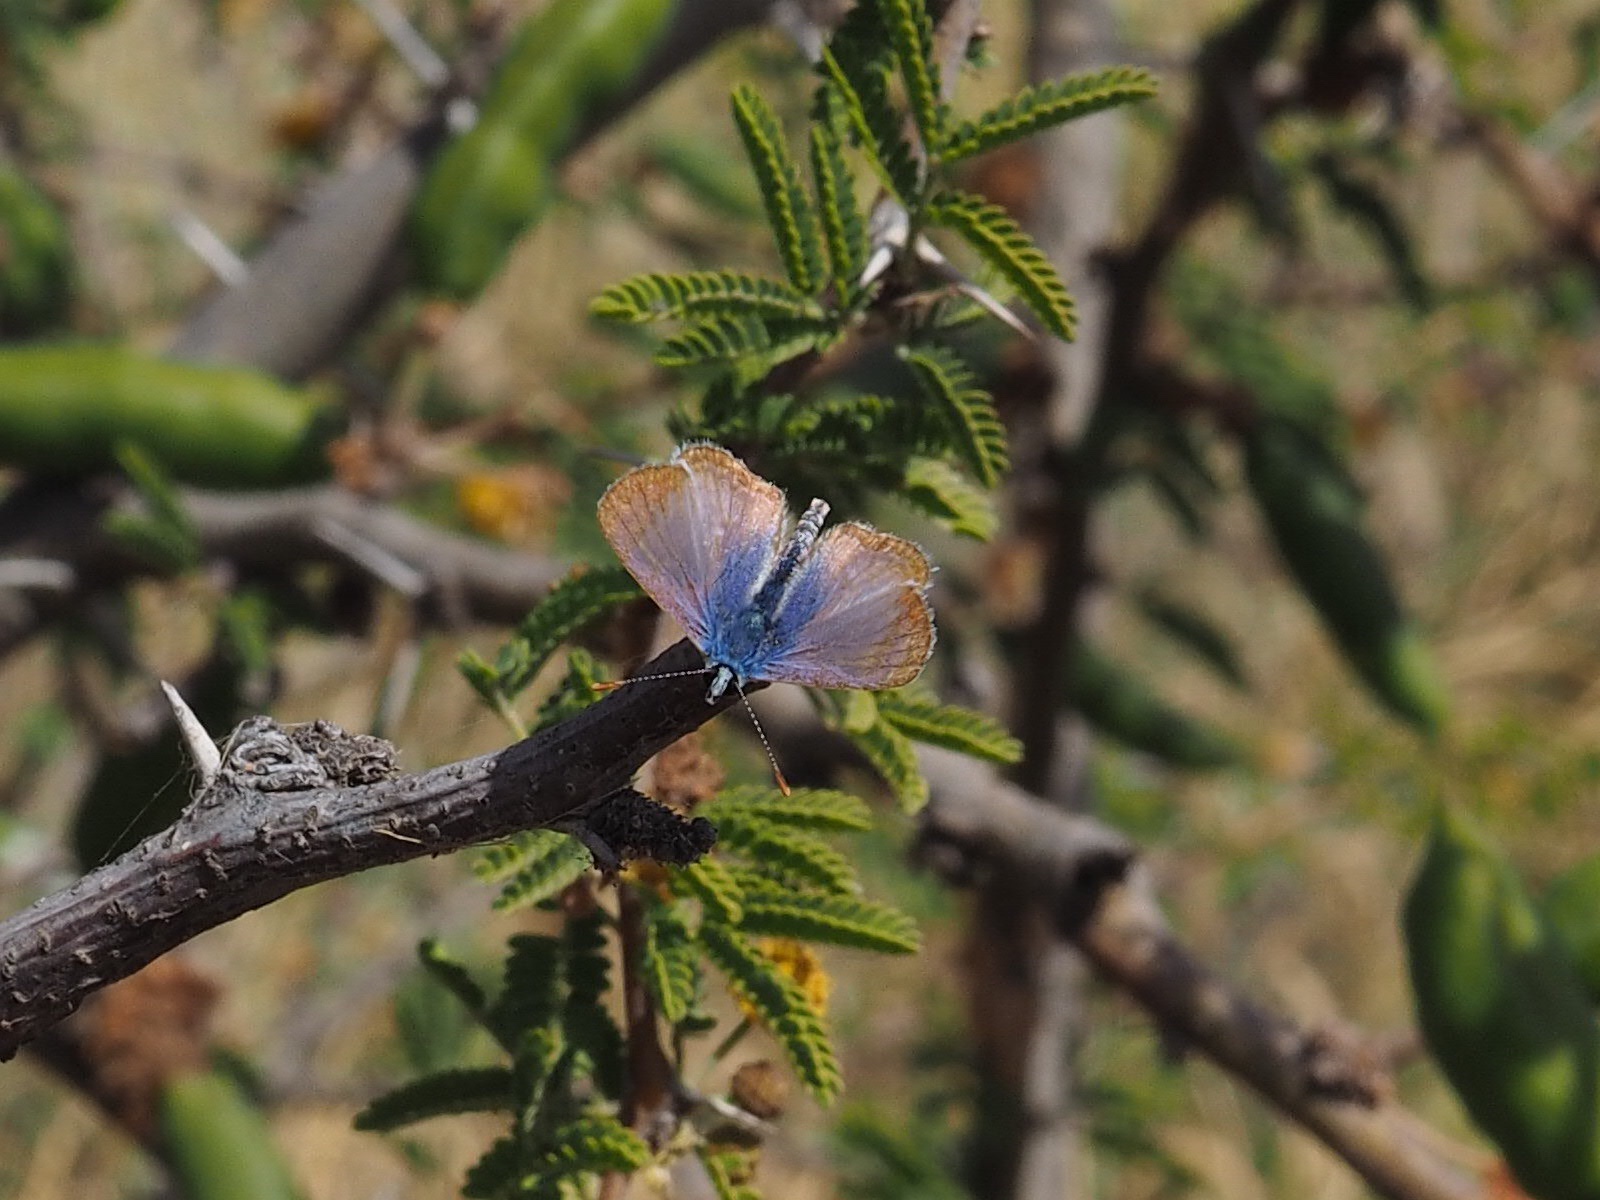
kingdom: Animalia
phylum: Arthropoda
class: Insecta
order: Lepidoptera
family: Lycaenidae
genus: Azanus
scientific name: Azanus ubaldus
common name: Desert babul blue
